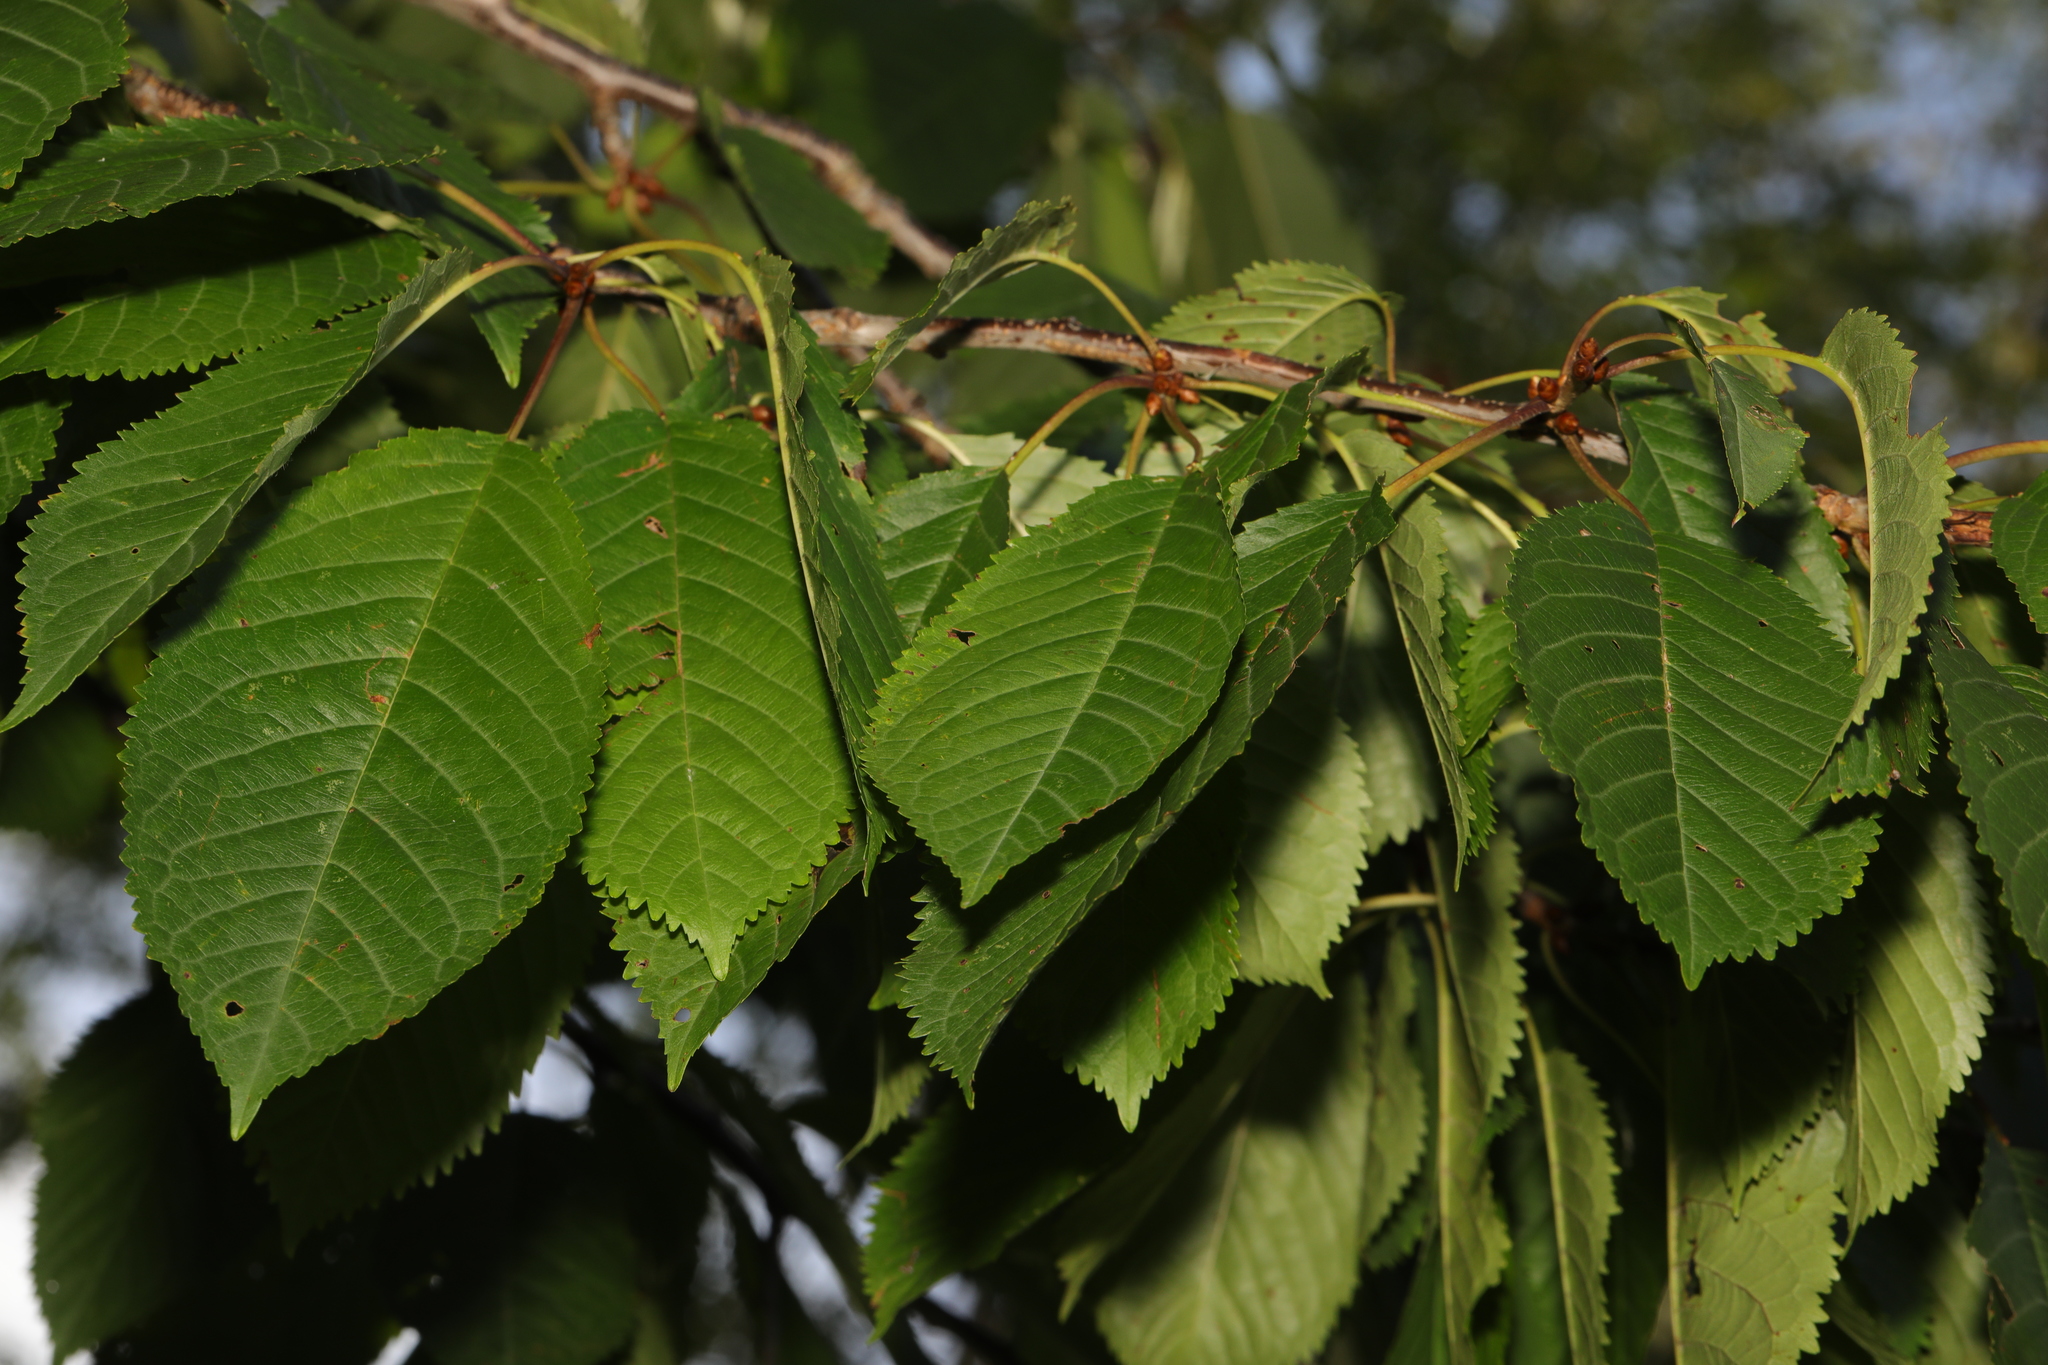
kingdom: Plantae
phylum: Tracheophyta
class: Magnoliopsida
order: Rosales
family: Rosaceae
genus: Prunus
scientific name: Prunus avium
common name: Sweet cherry
